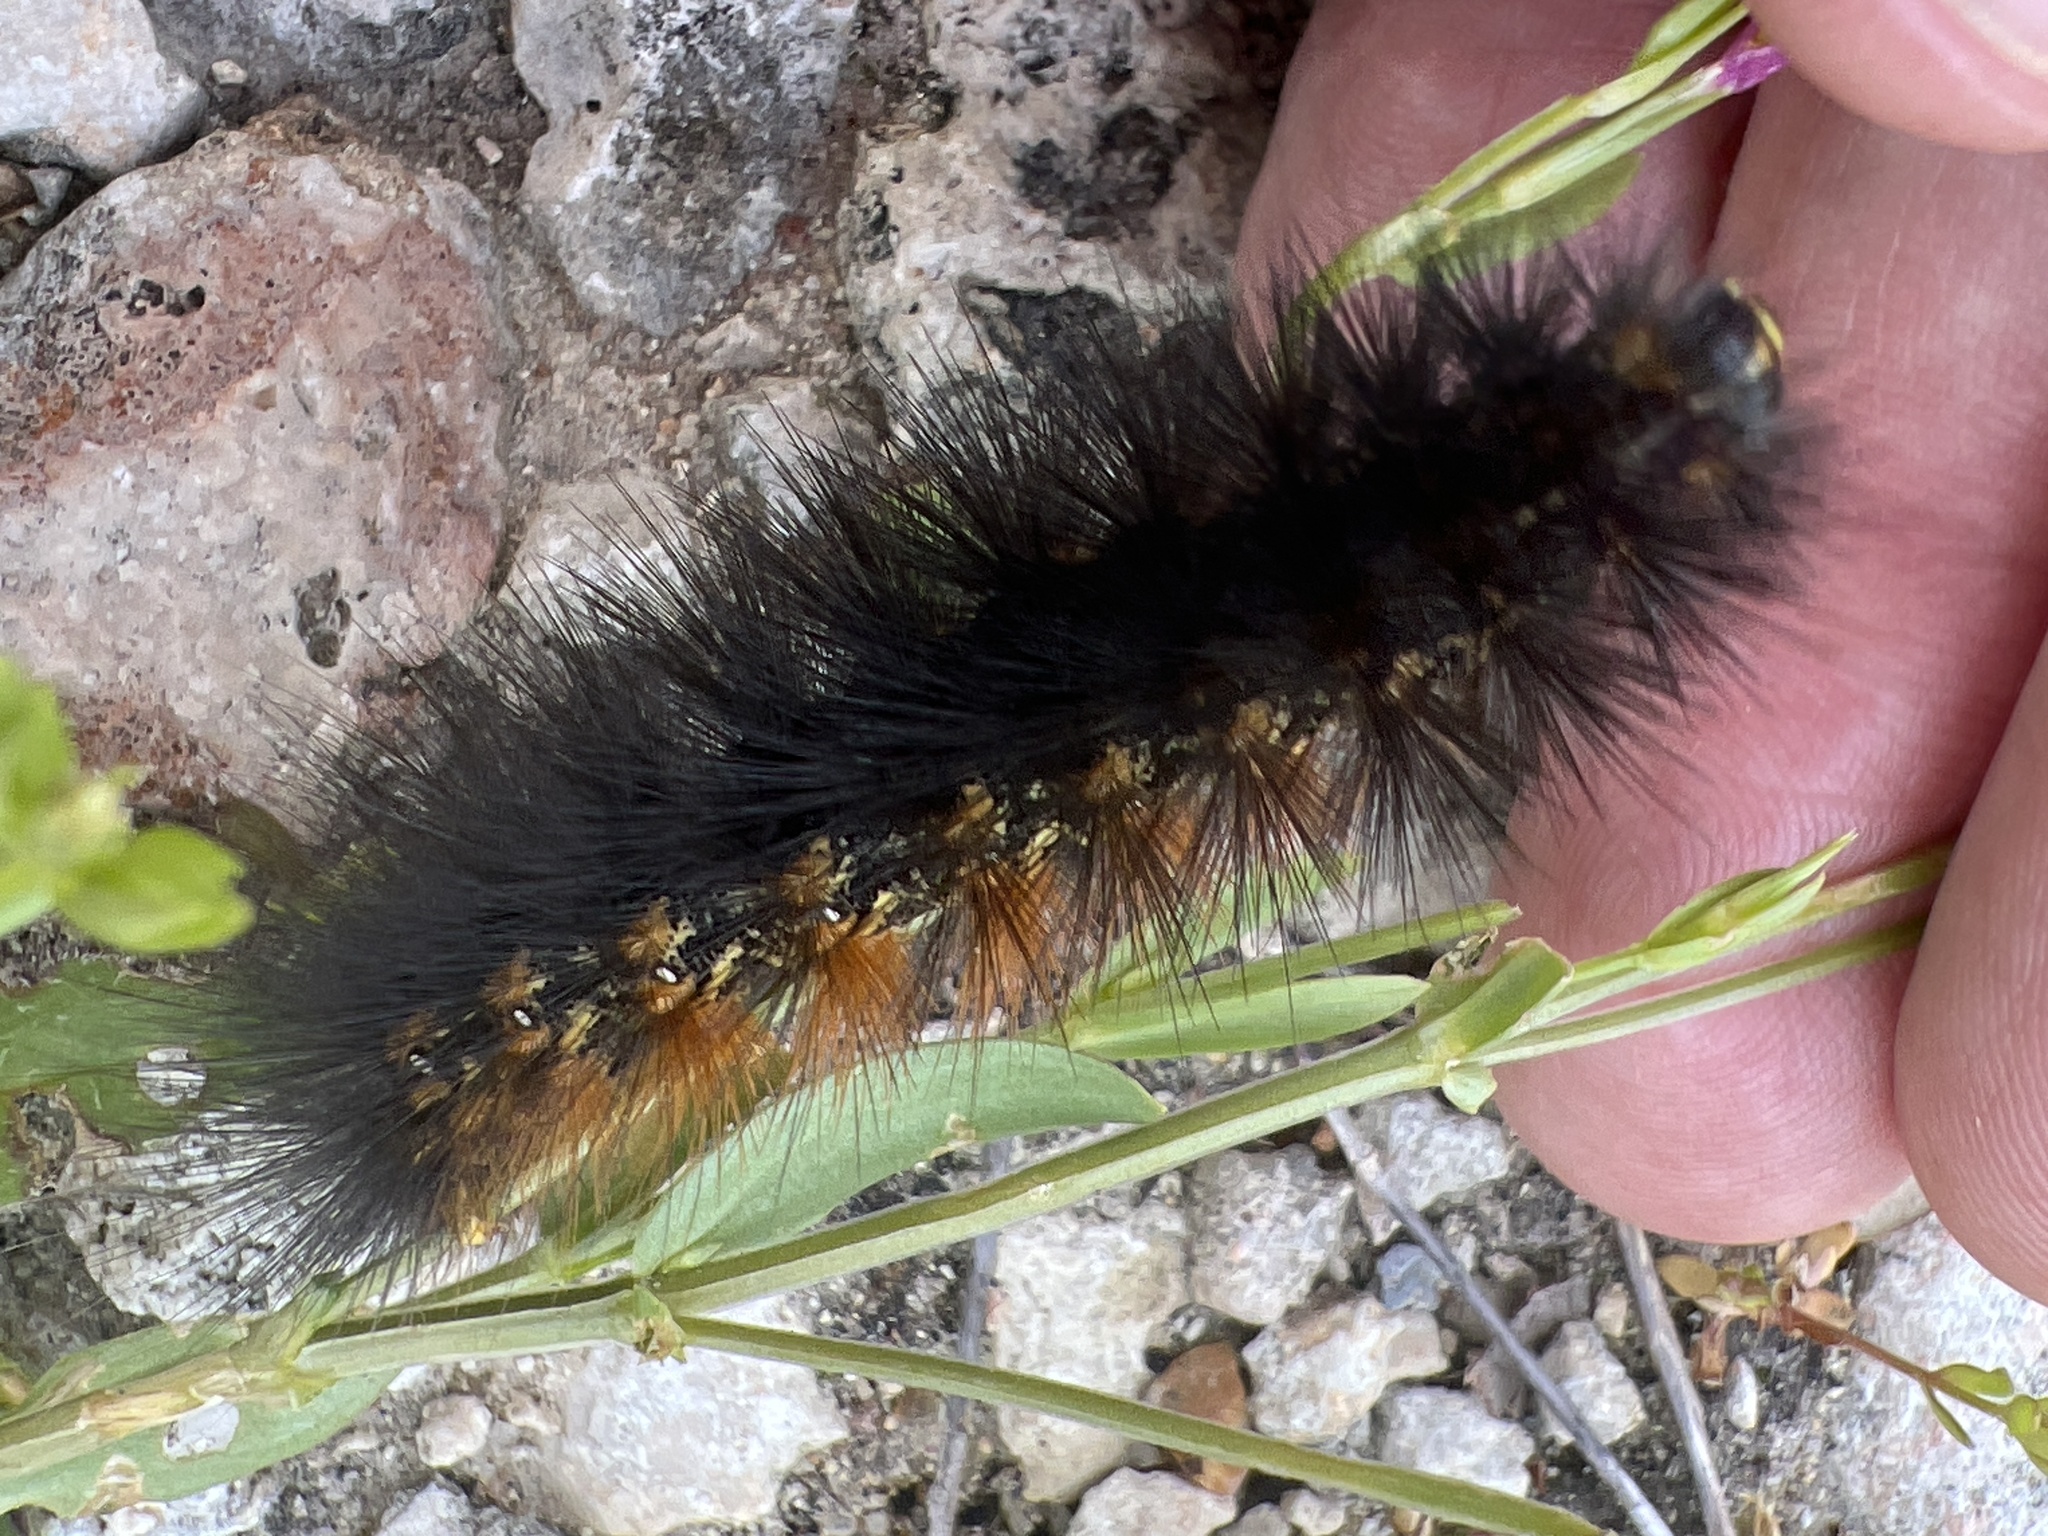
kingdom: Animalia
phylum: Arthropoda
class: Insecta
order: Lepidoptera
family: Erebidae
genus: Estigmene
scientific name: Estigmene acrea
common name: Salt marsh moth
